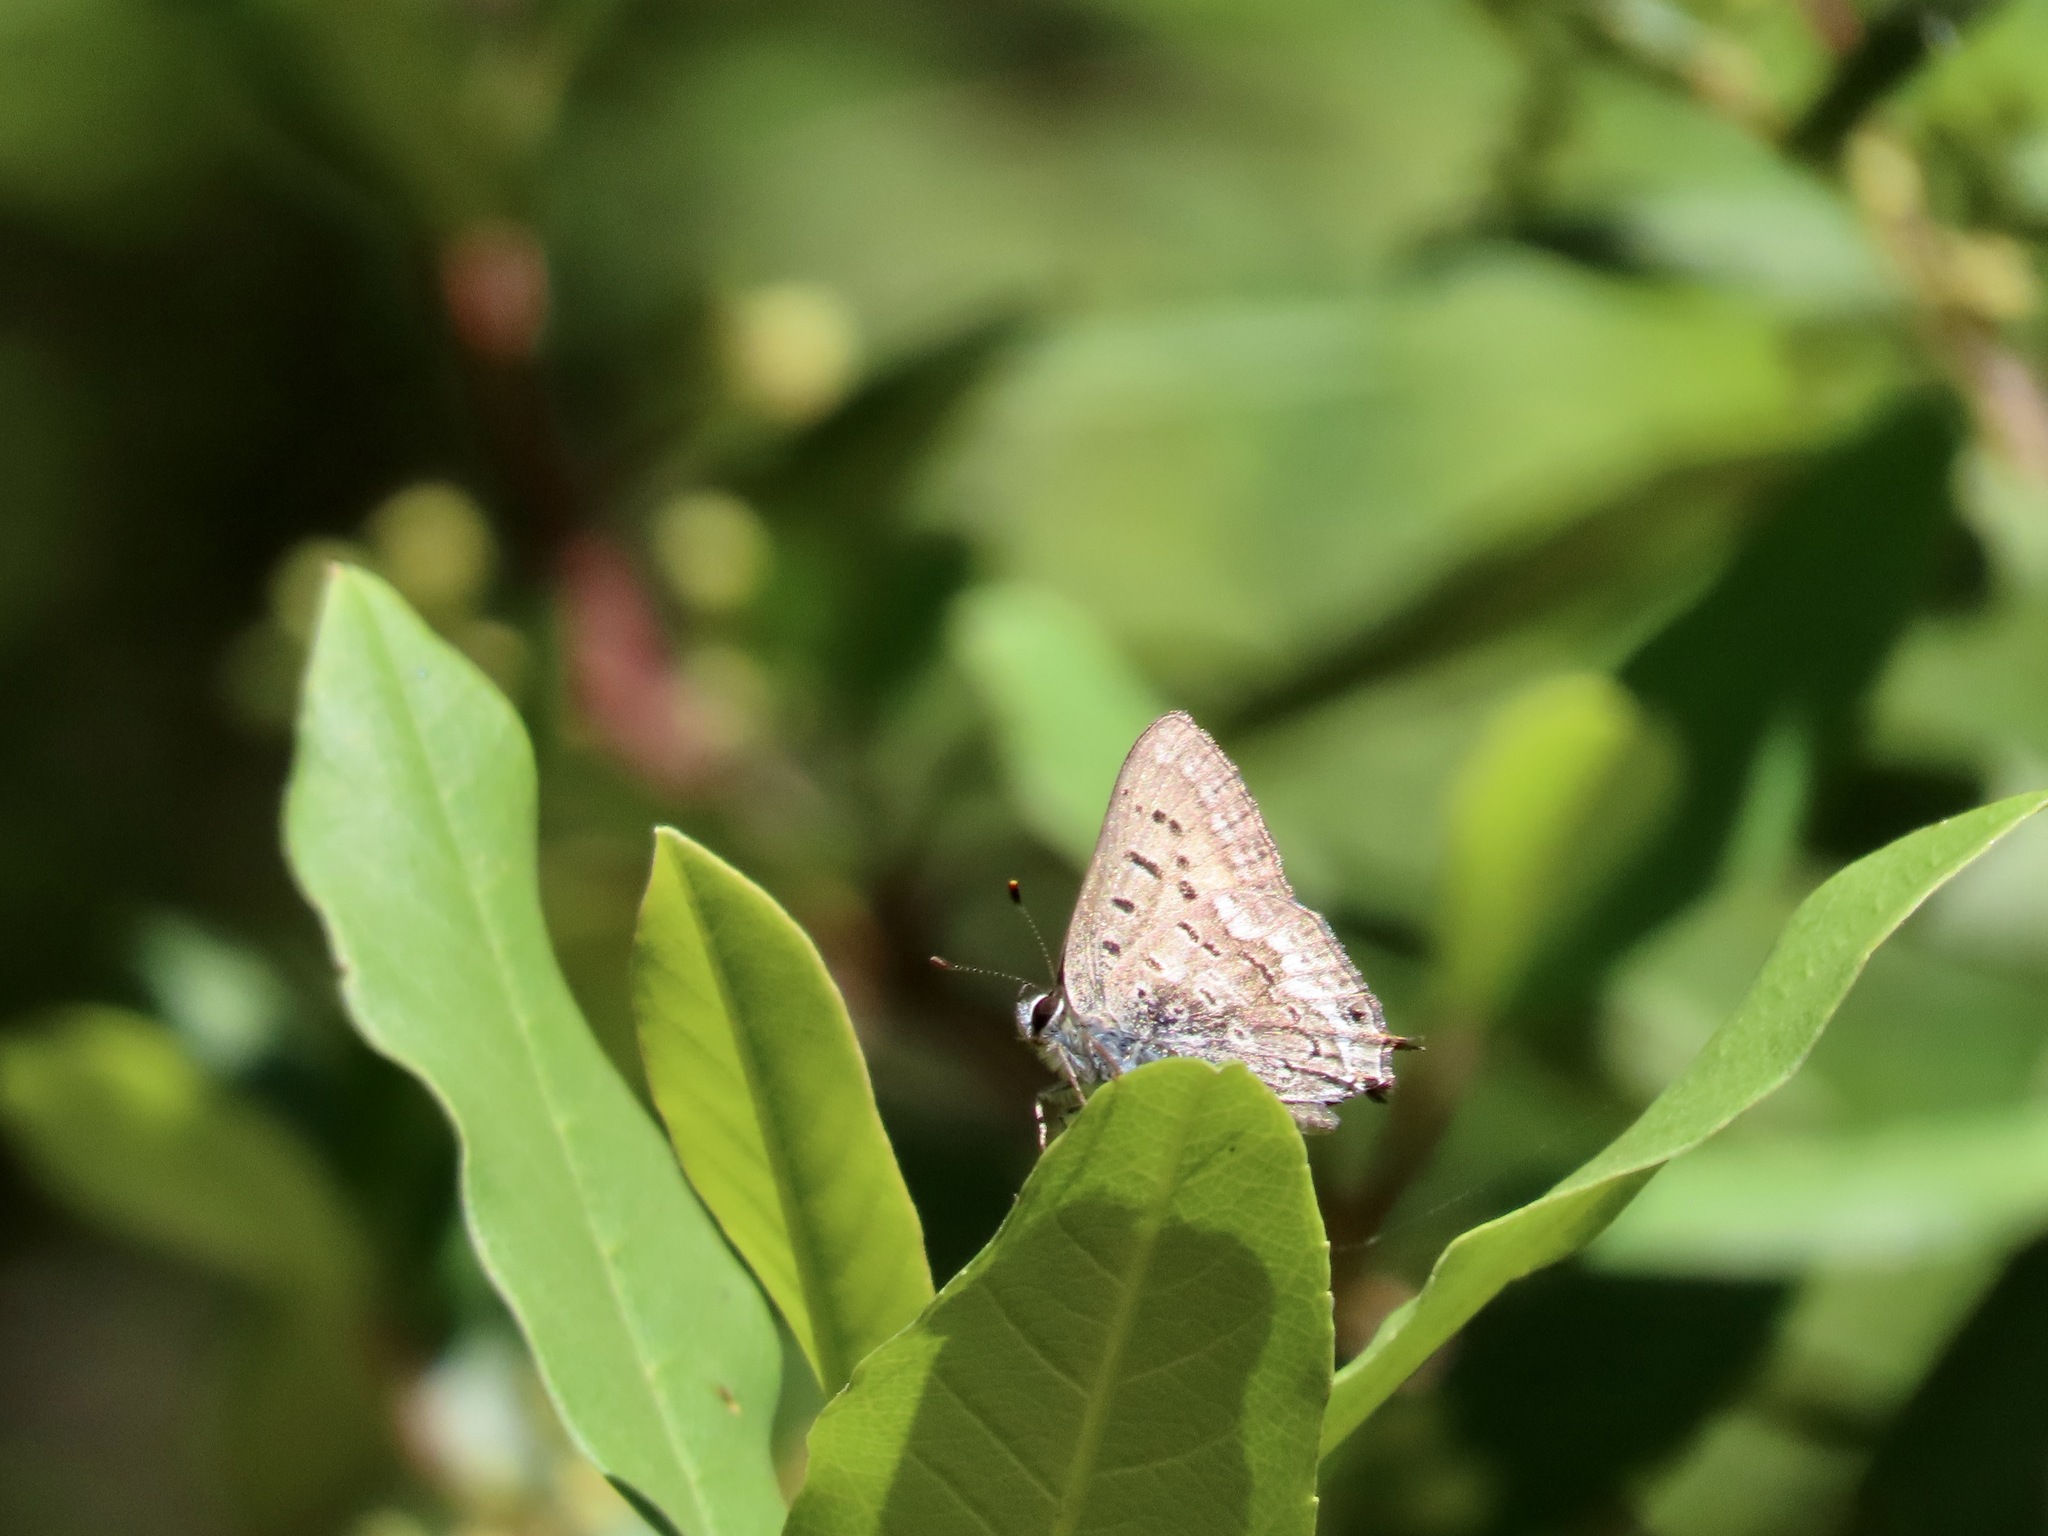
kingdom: Animalia
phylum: Arthropoda
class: Insecta
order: Lepidoptera
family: Lycaenidae
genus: Tharsalea
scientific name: Tharsalea arota
